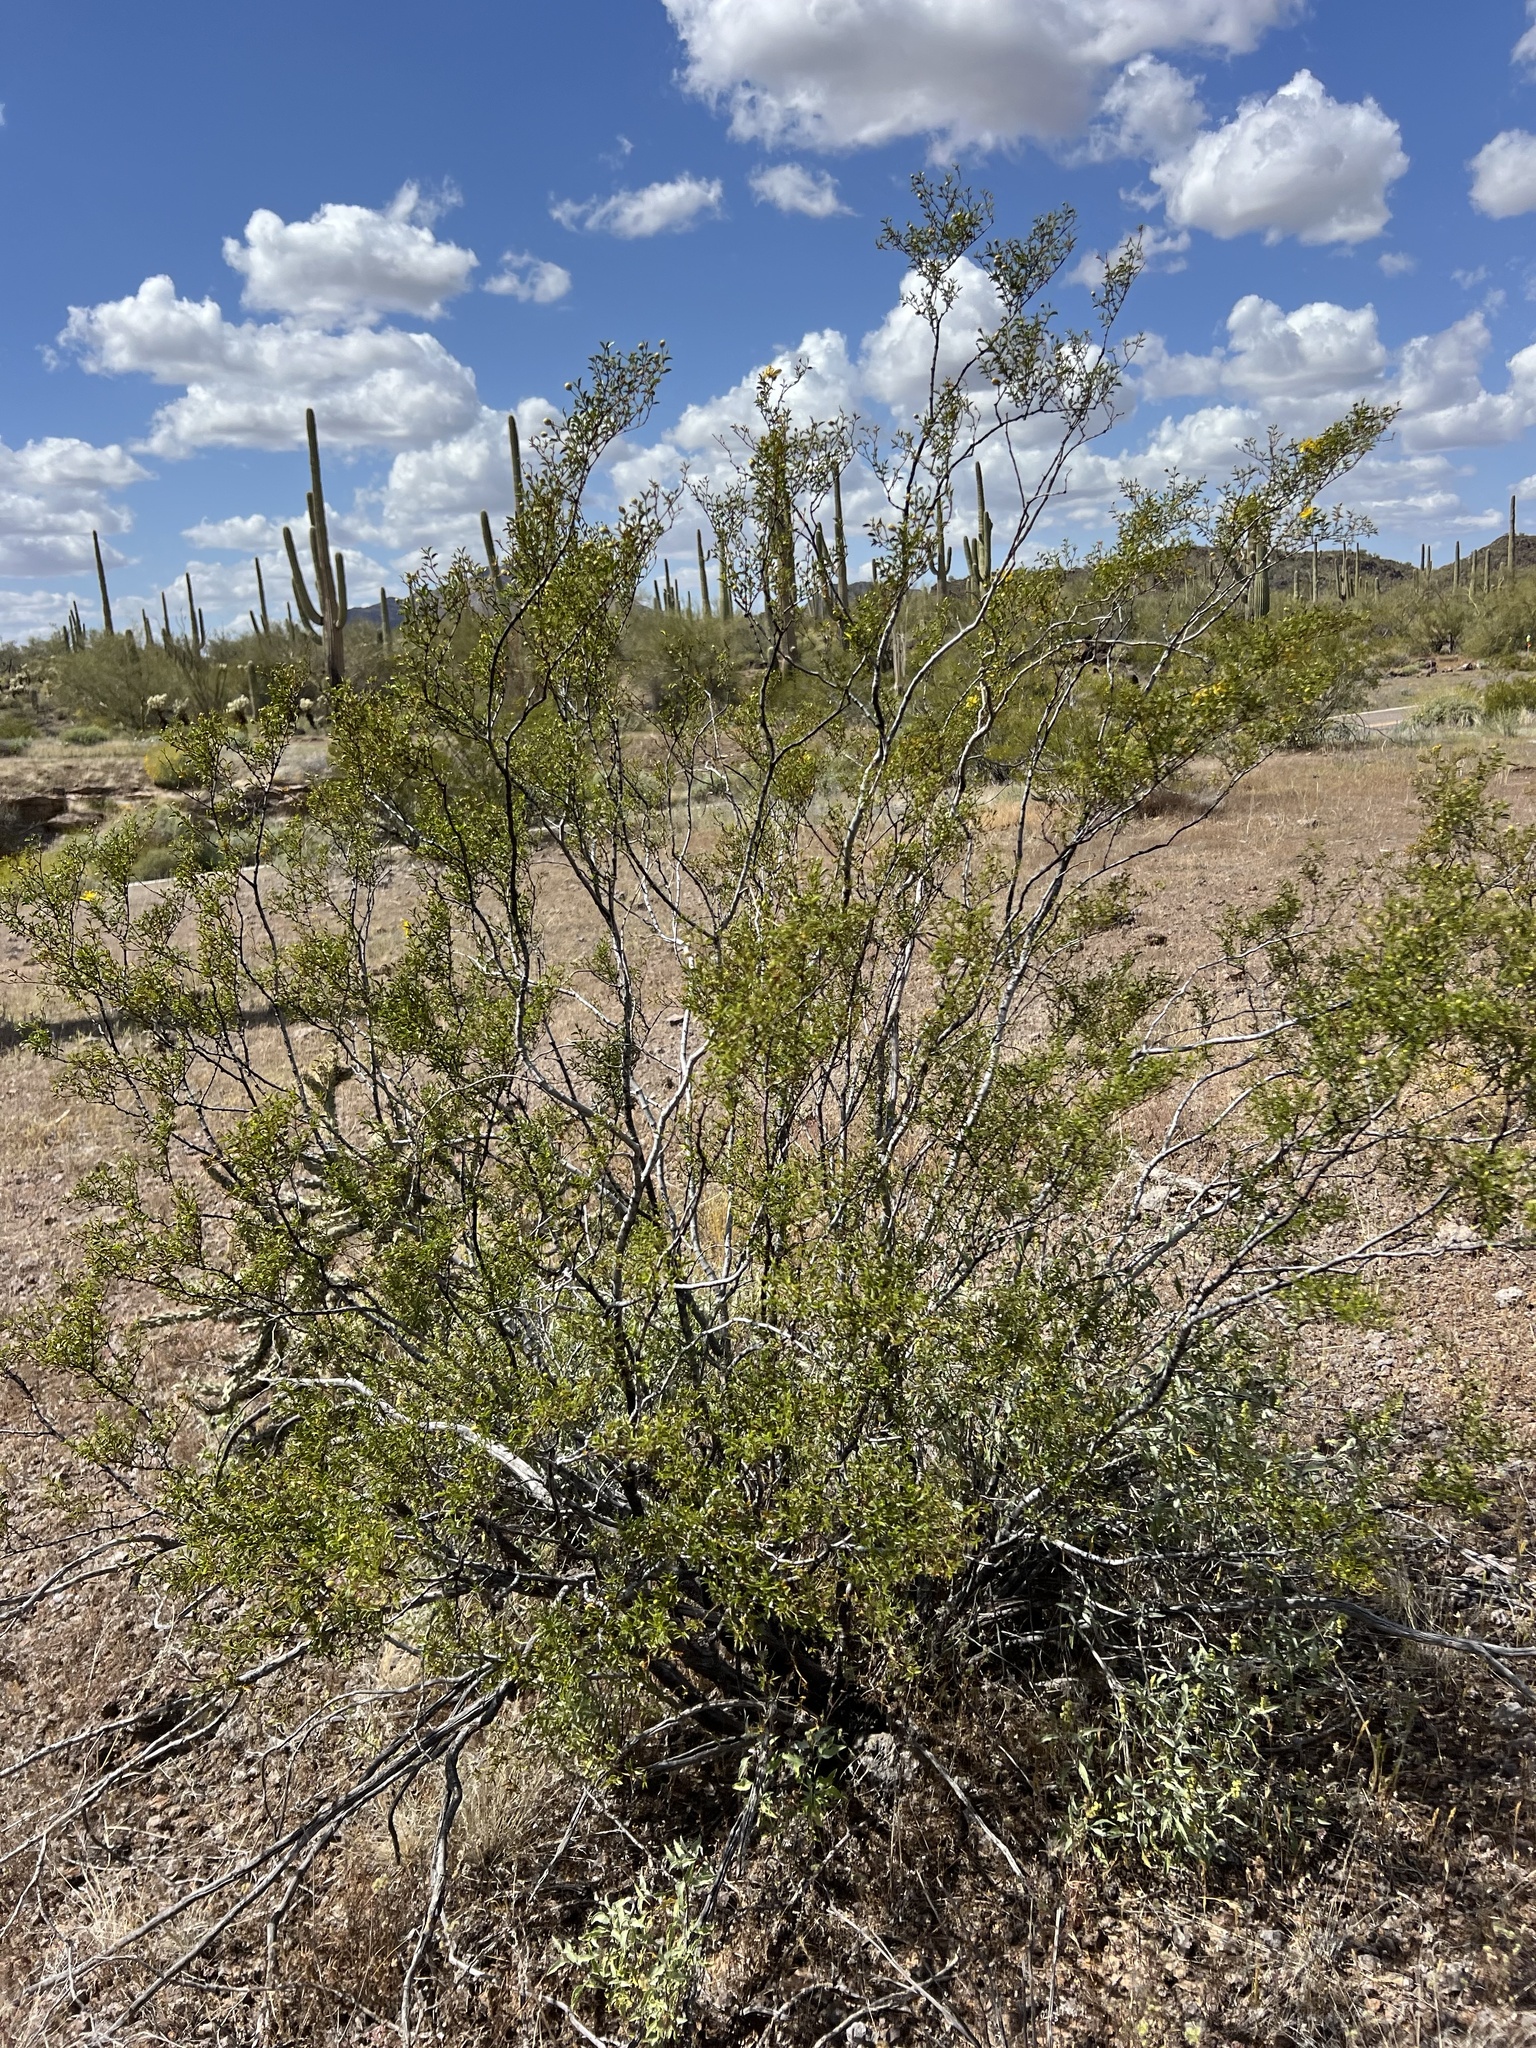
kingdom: Plantae
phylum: Tracheophyta
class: Magnoliopsida
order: Zygophyllales
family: Zygophyllaceae
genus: Larrea
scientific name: Larrea tridentata
